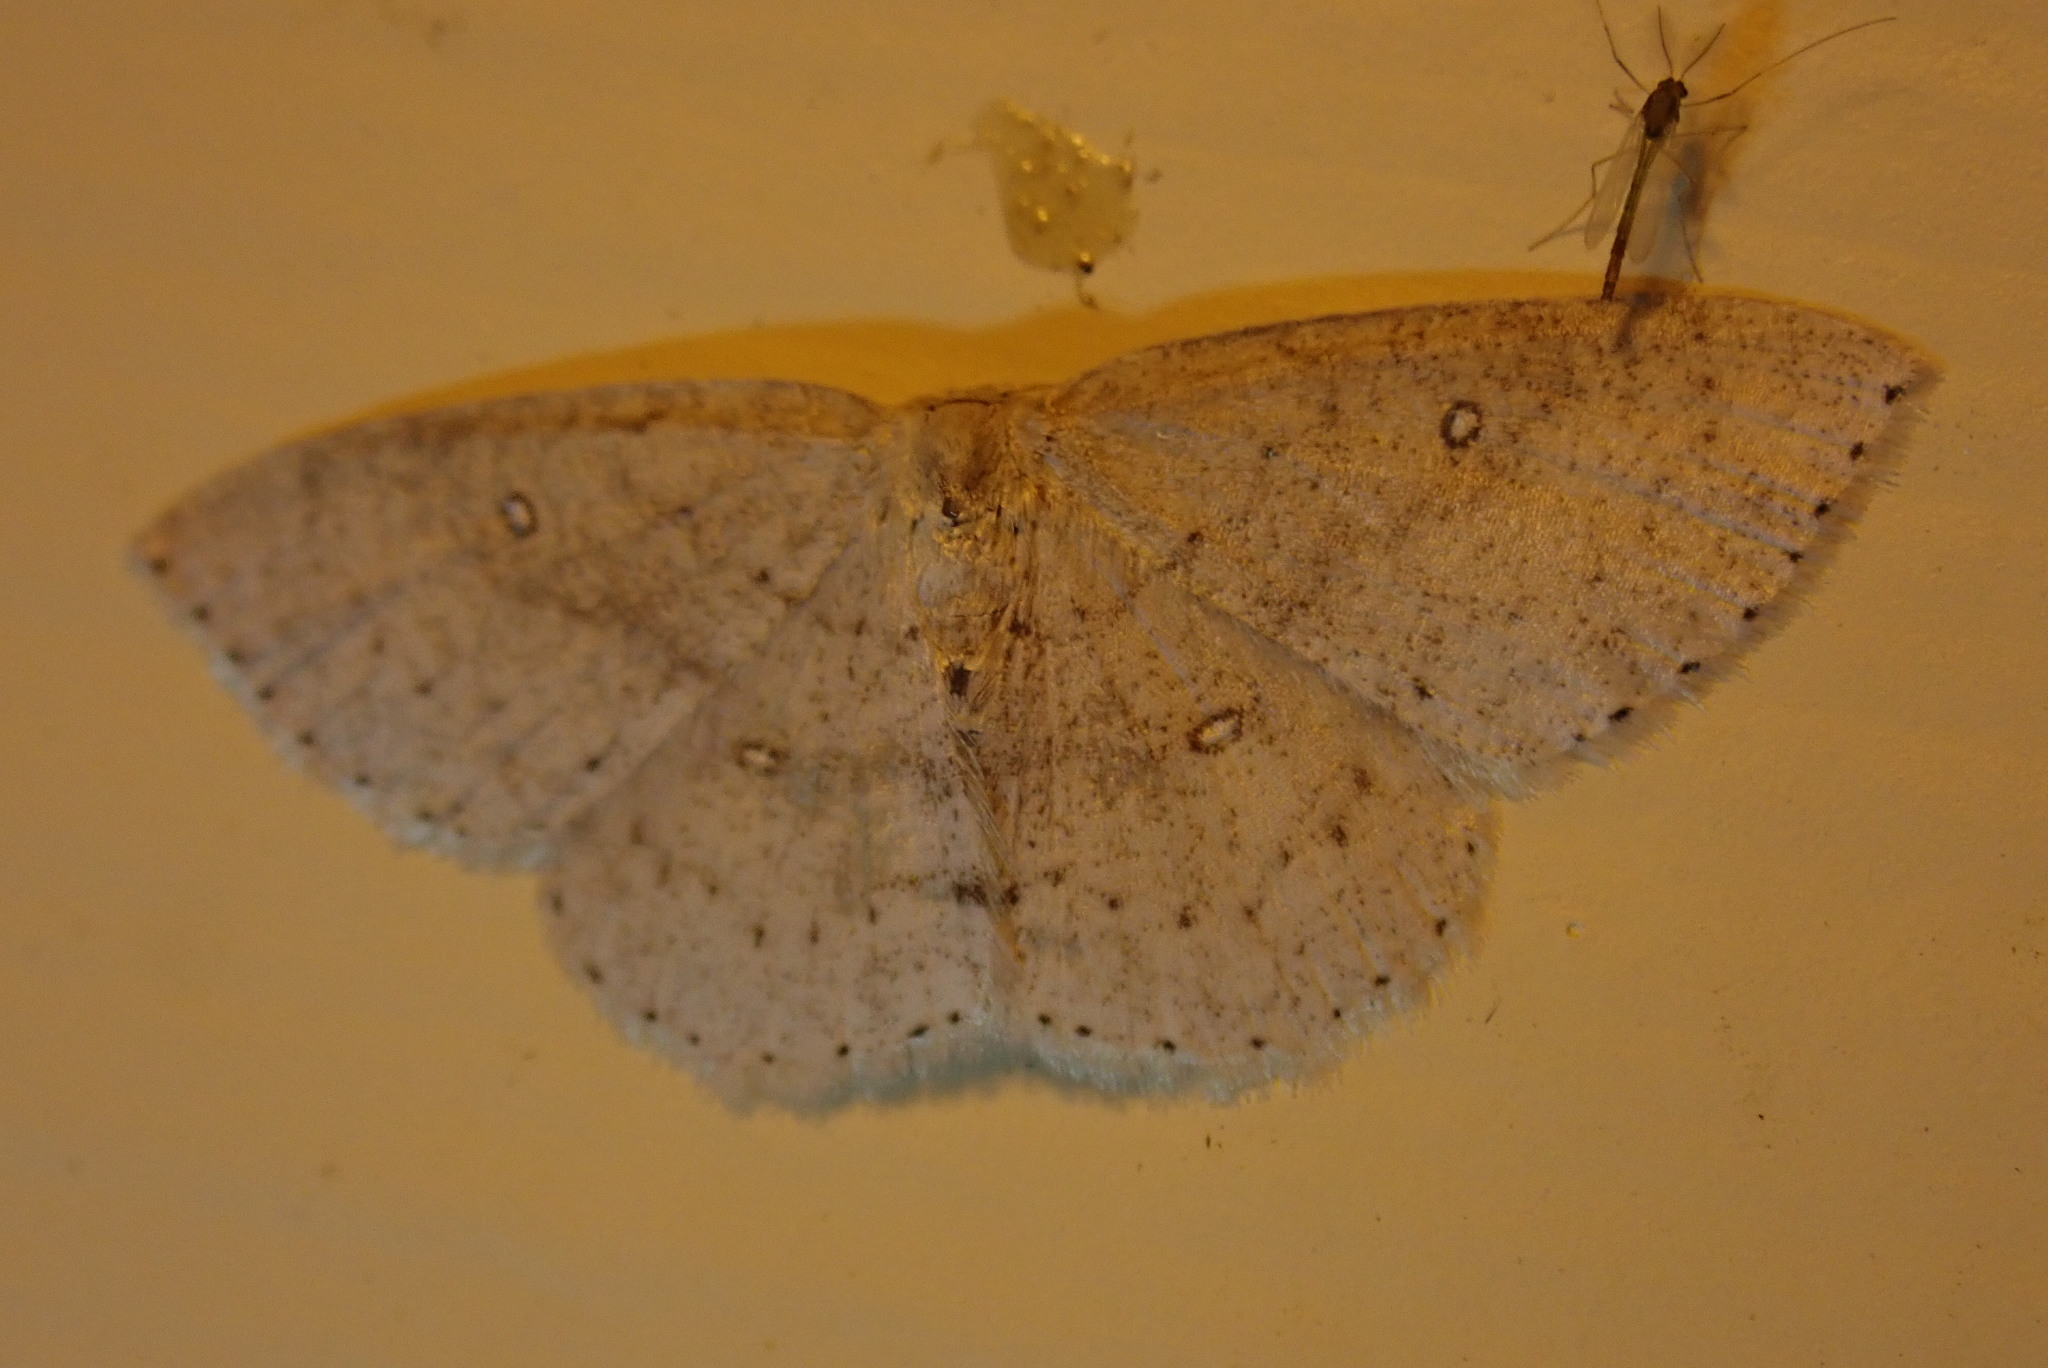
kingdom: Animalia
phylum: Arthropoda
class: Insecta
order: Lepidoptera
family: Geometridae
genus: Cyclophora
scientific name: Cyclophora pendulinaria
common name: Sweet fern geometer
